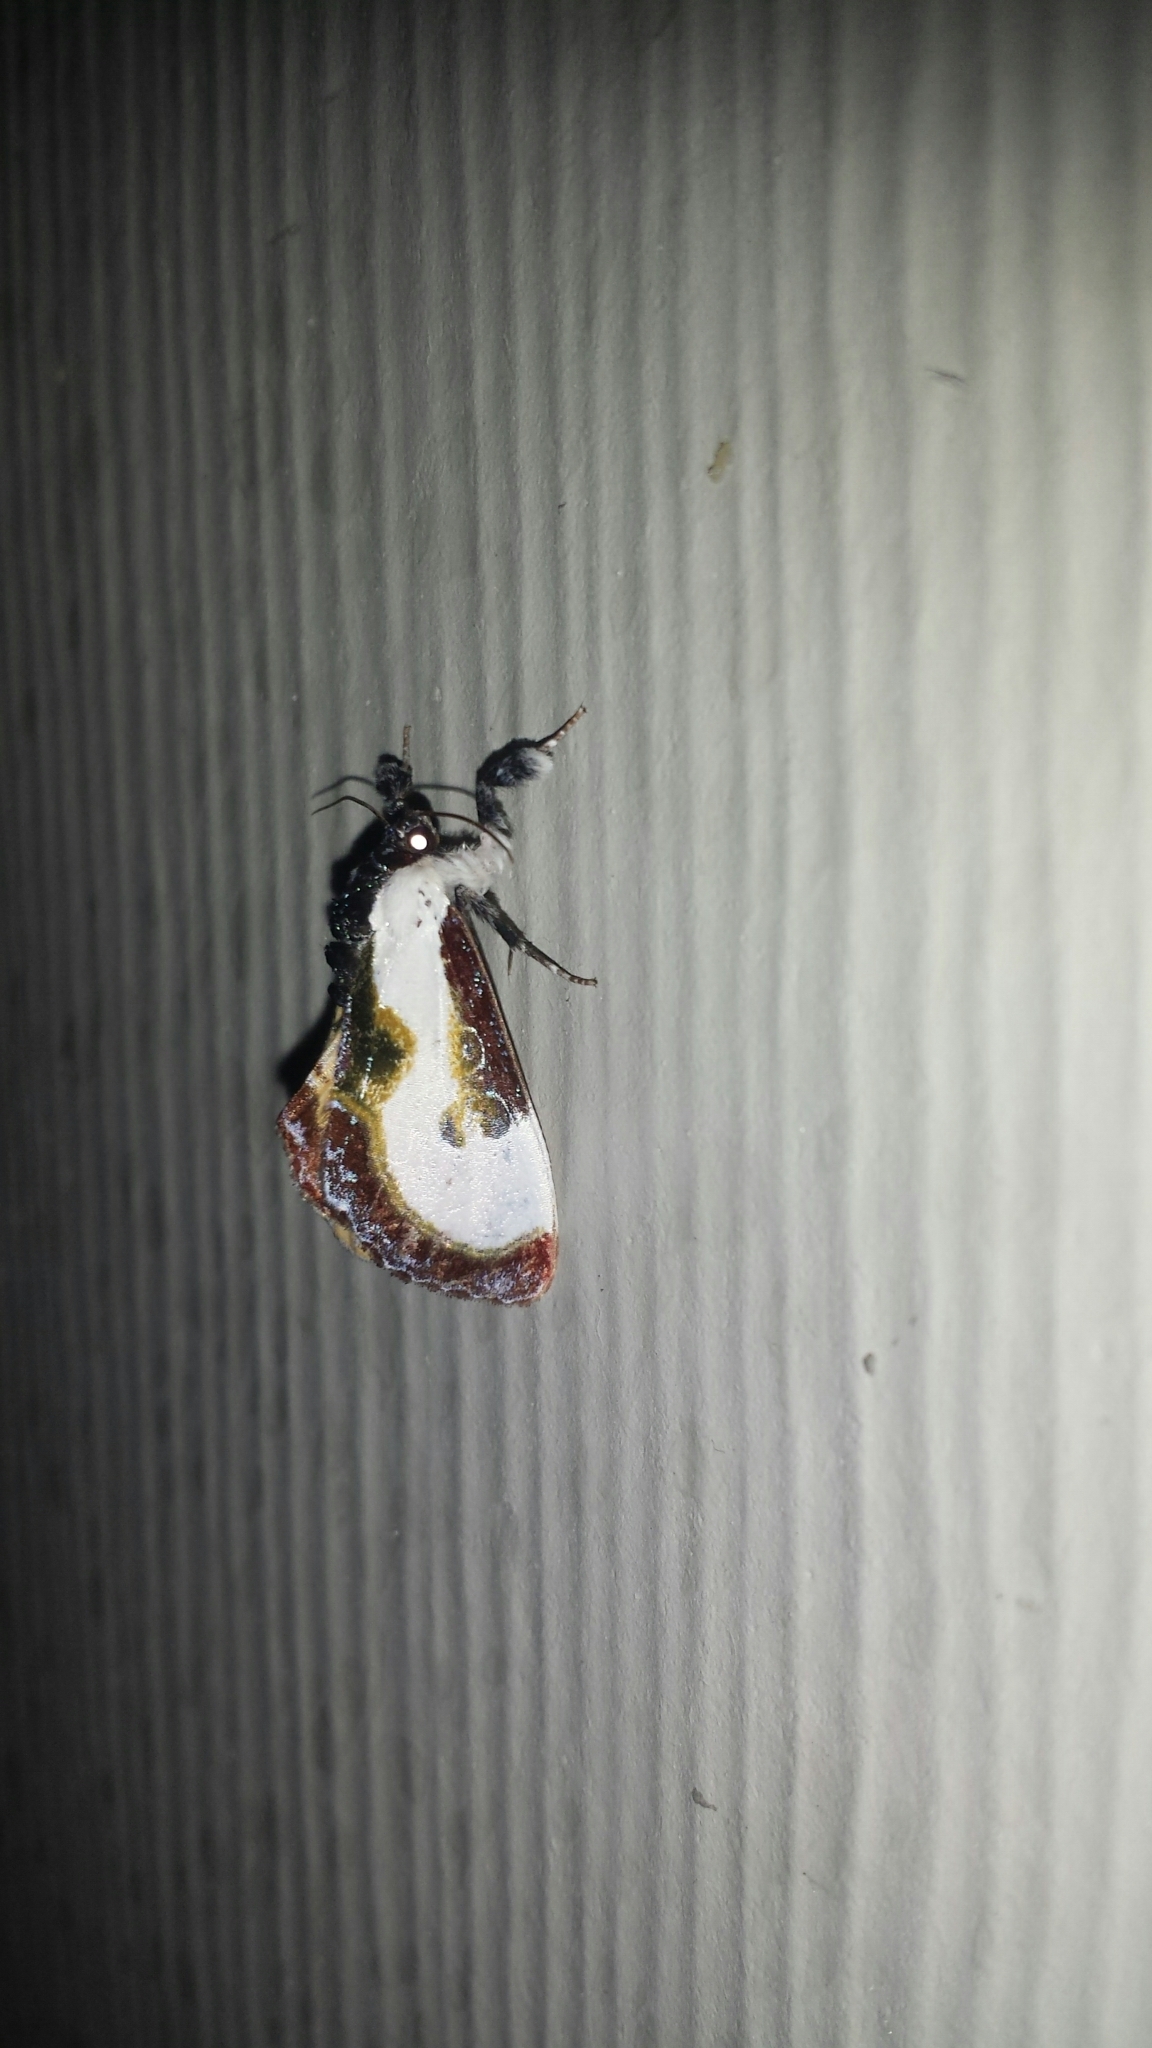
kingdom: Animalia
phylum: Arthropoda
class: Insecta
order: Lepidoptera
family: Noctuidae
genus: Eudryas
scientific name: Eudryas grata
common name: Beautiful wood-nymph
